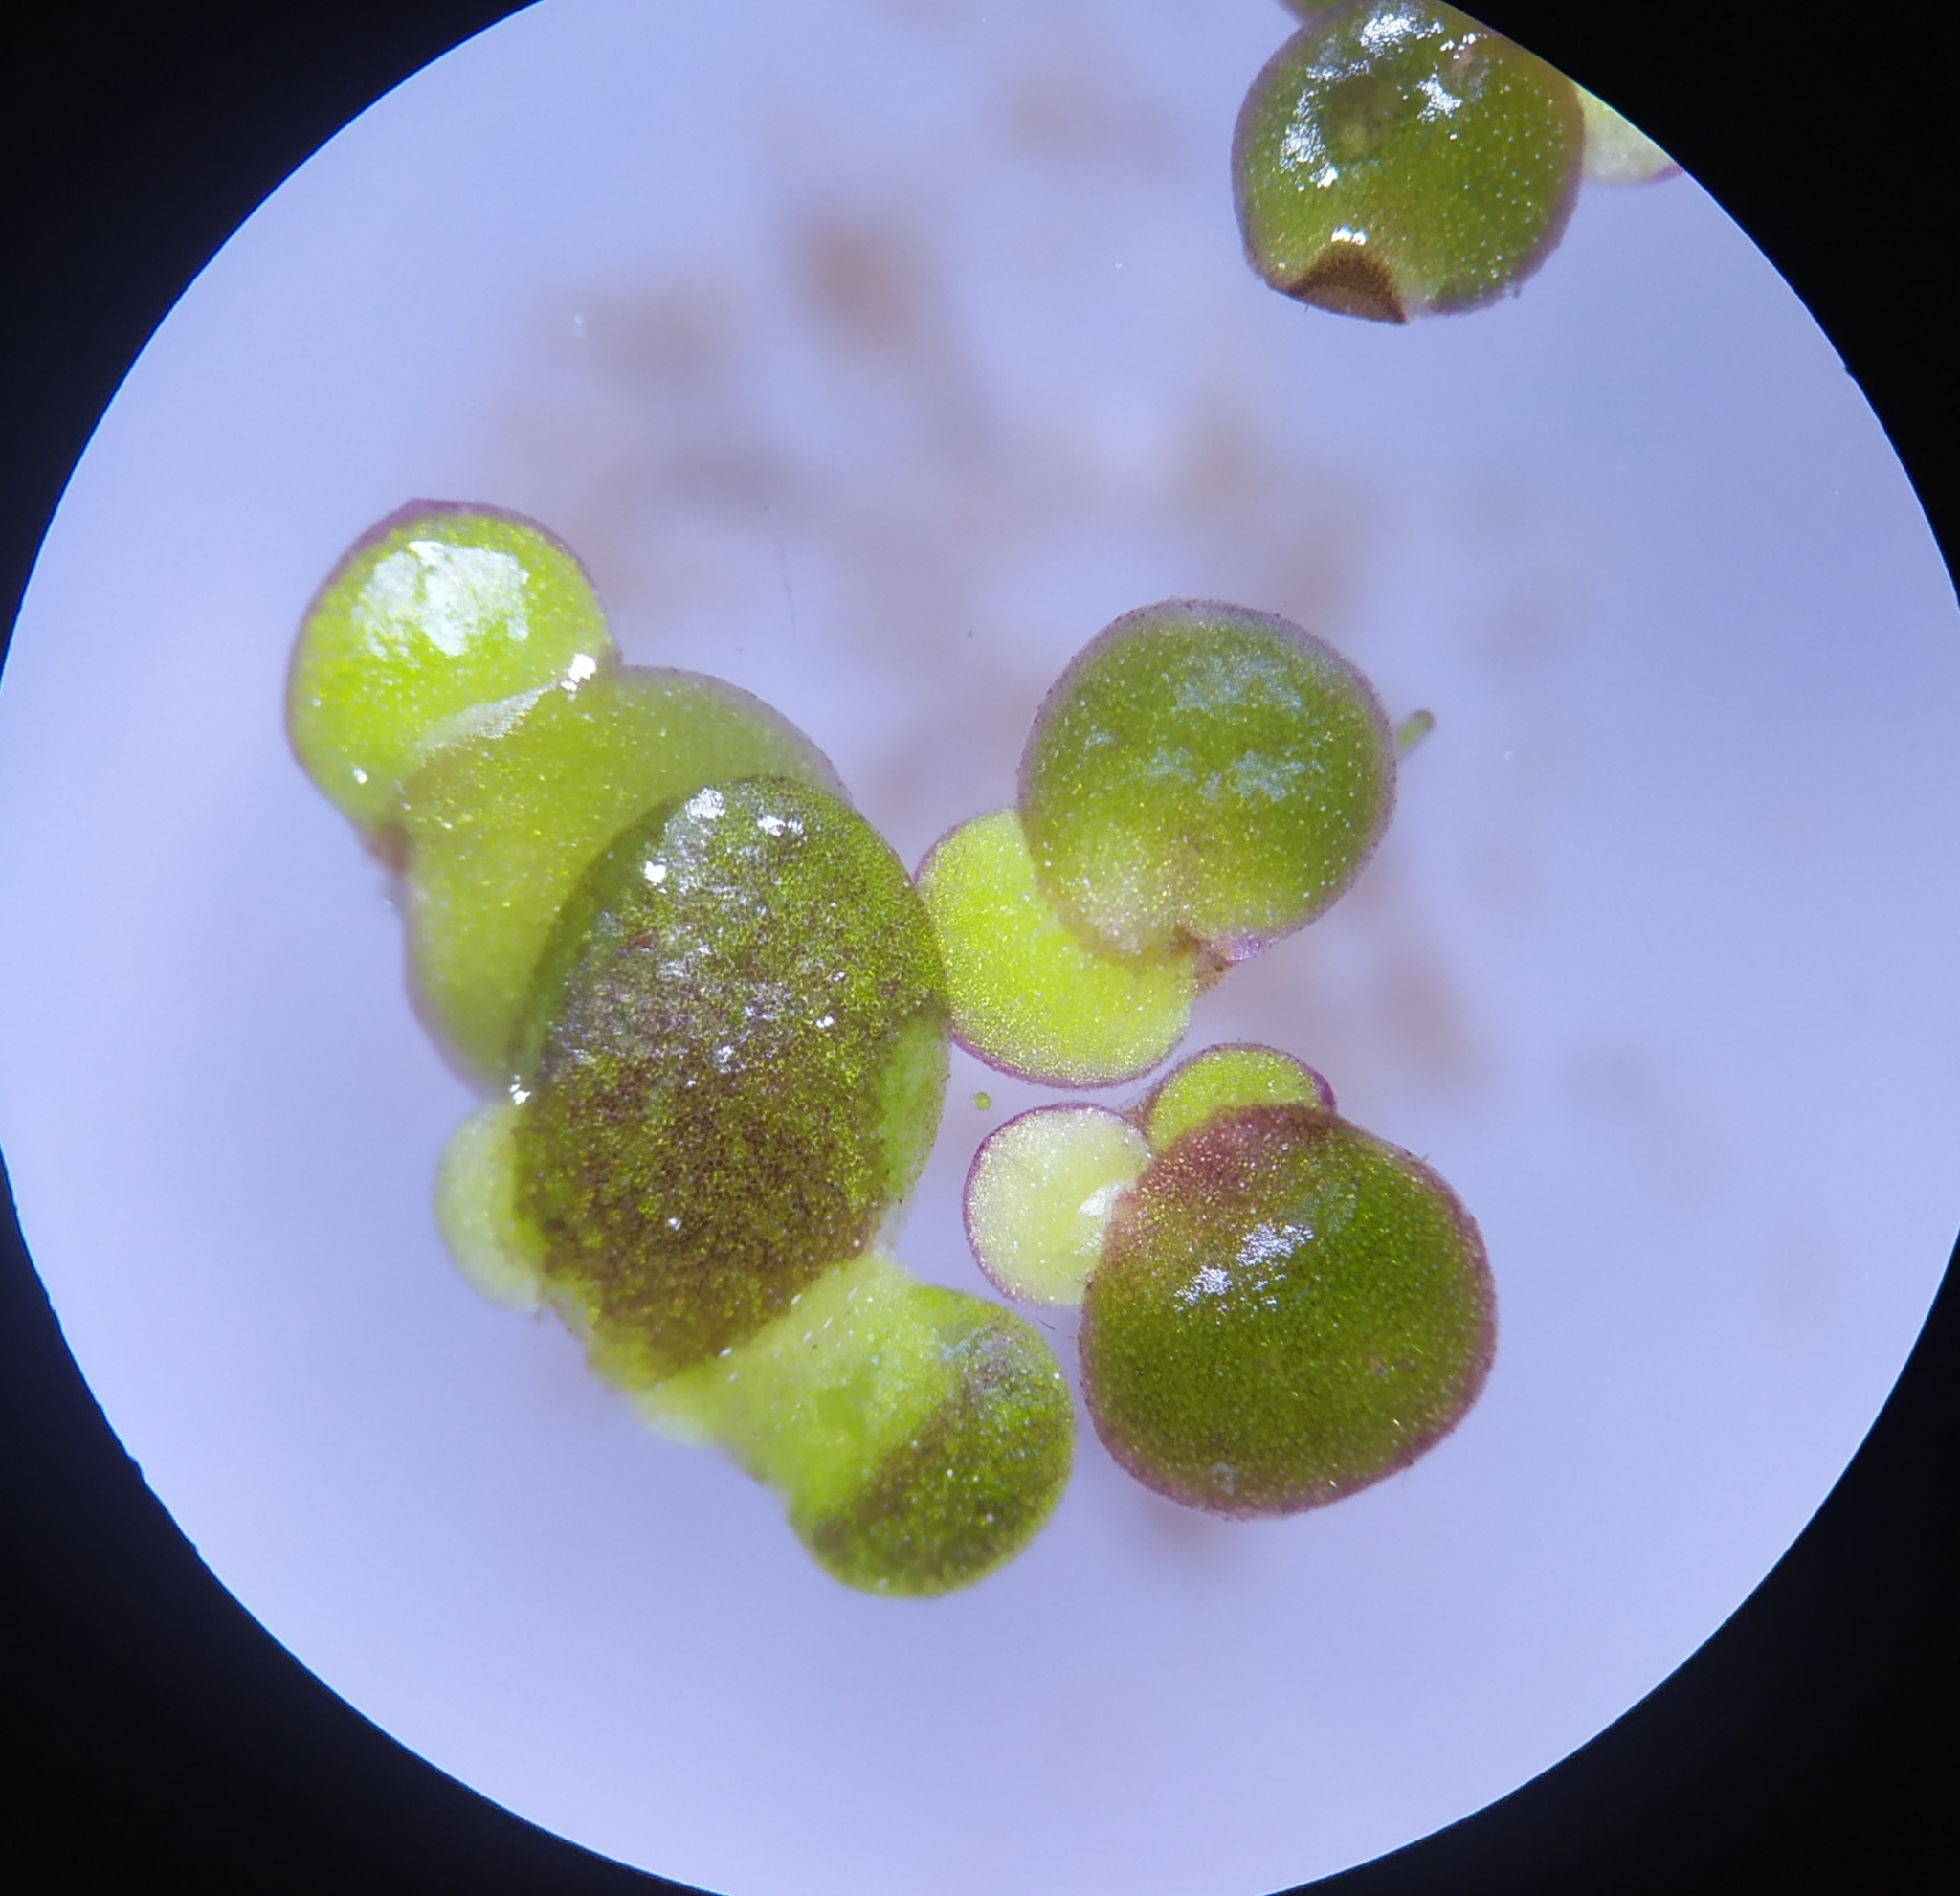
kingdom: Plantae
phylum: Tracheophyta
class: Liliopsida
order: Alismatales
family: Araceae
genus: Spirodela
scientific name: Spirodela polyrhiza
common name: Great duckweed
